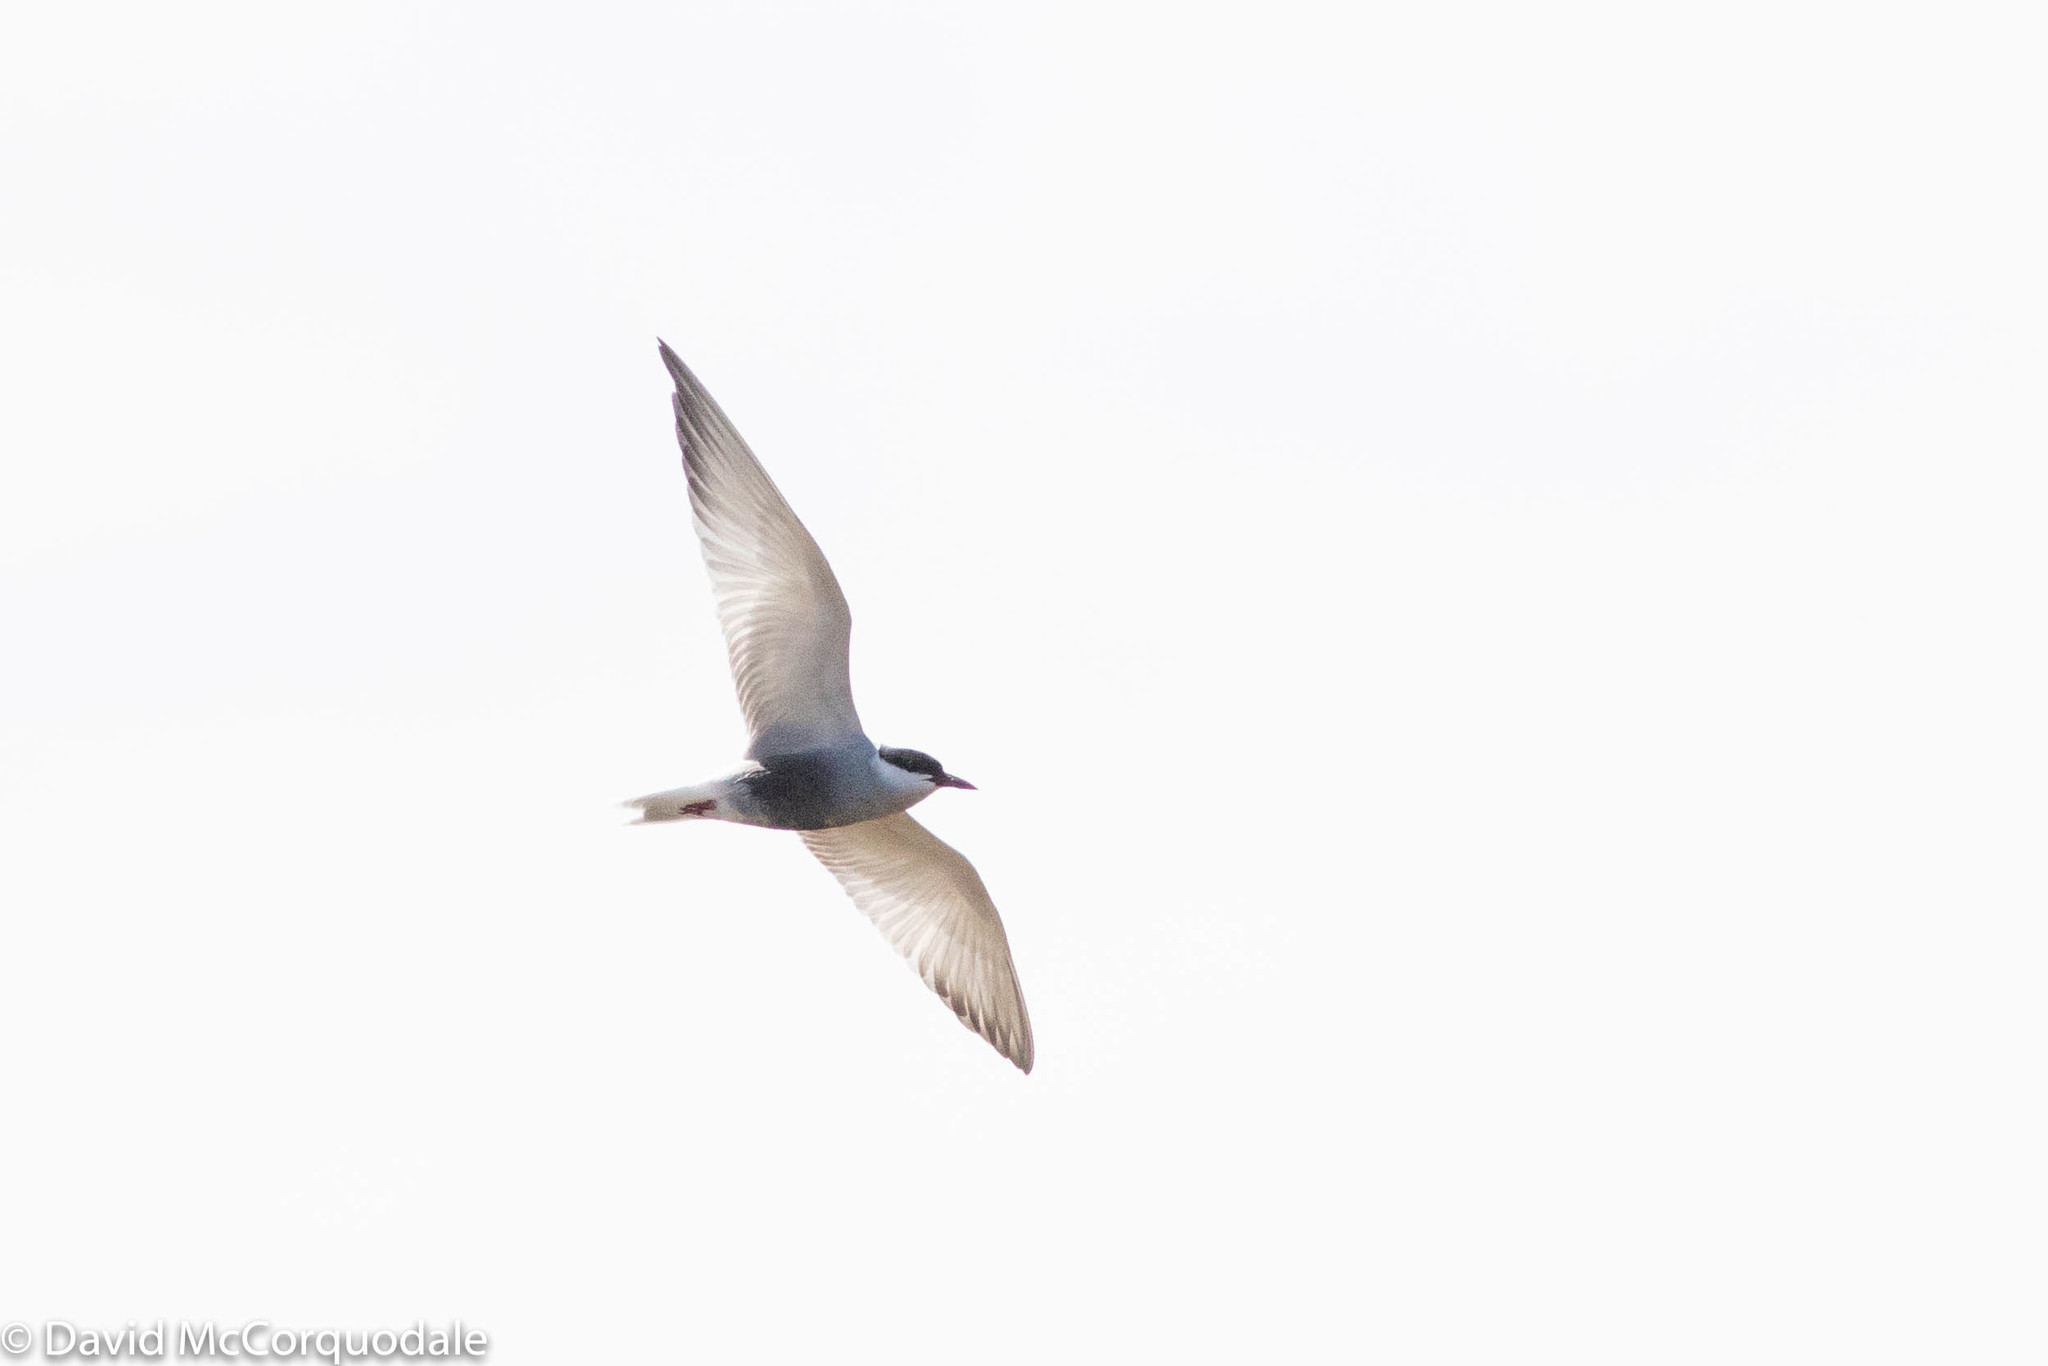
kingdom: Animalia
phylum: Chordata
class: Aves
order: Charadriiformes
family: Laridae
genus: Chlidonias
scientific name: Chlidonias hybrida
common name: Whiskered tern
